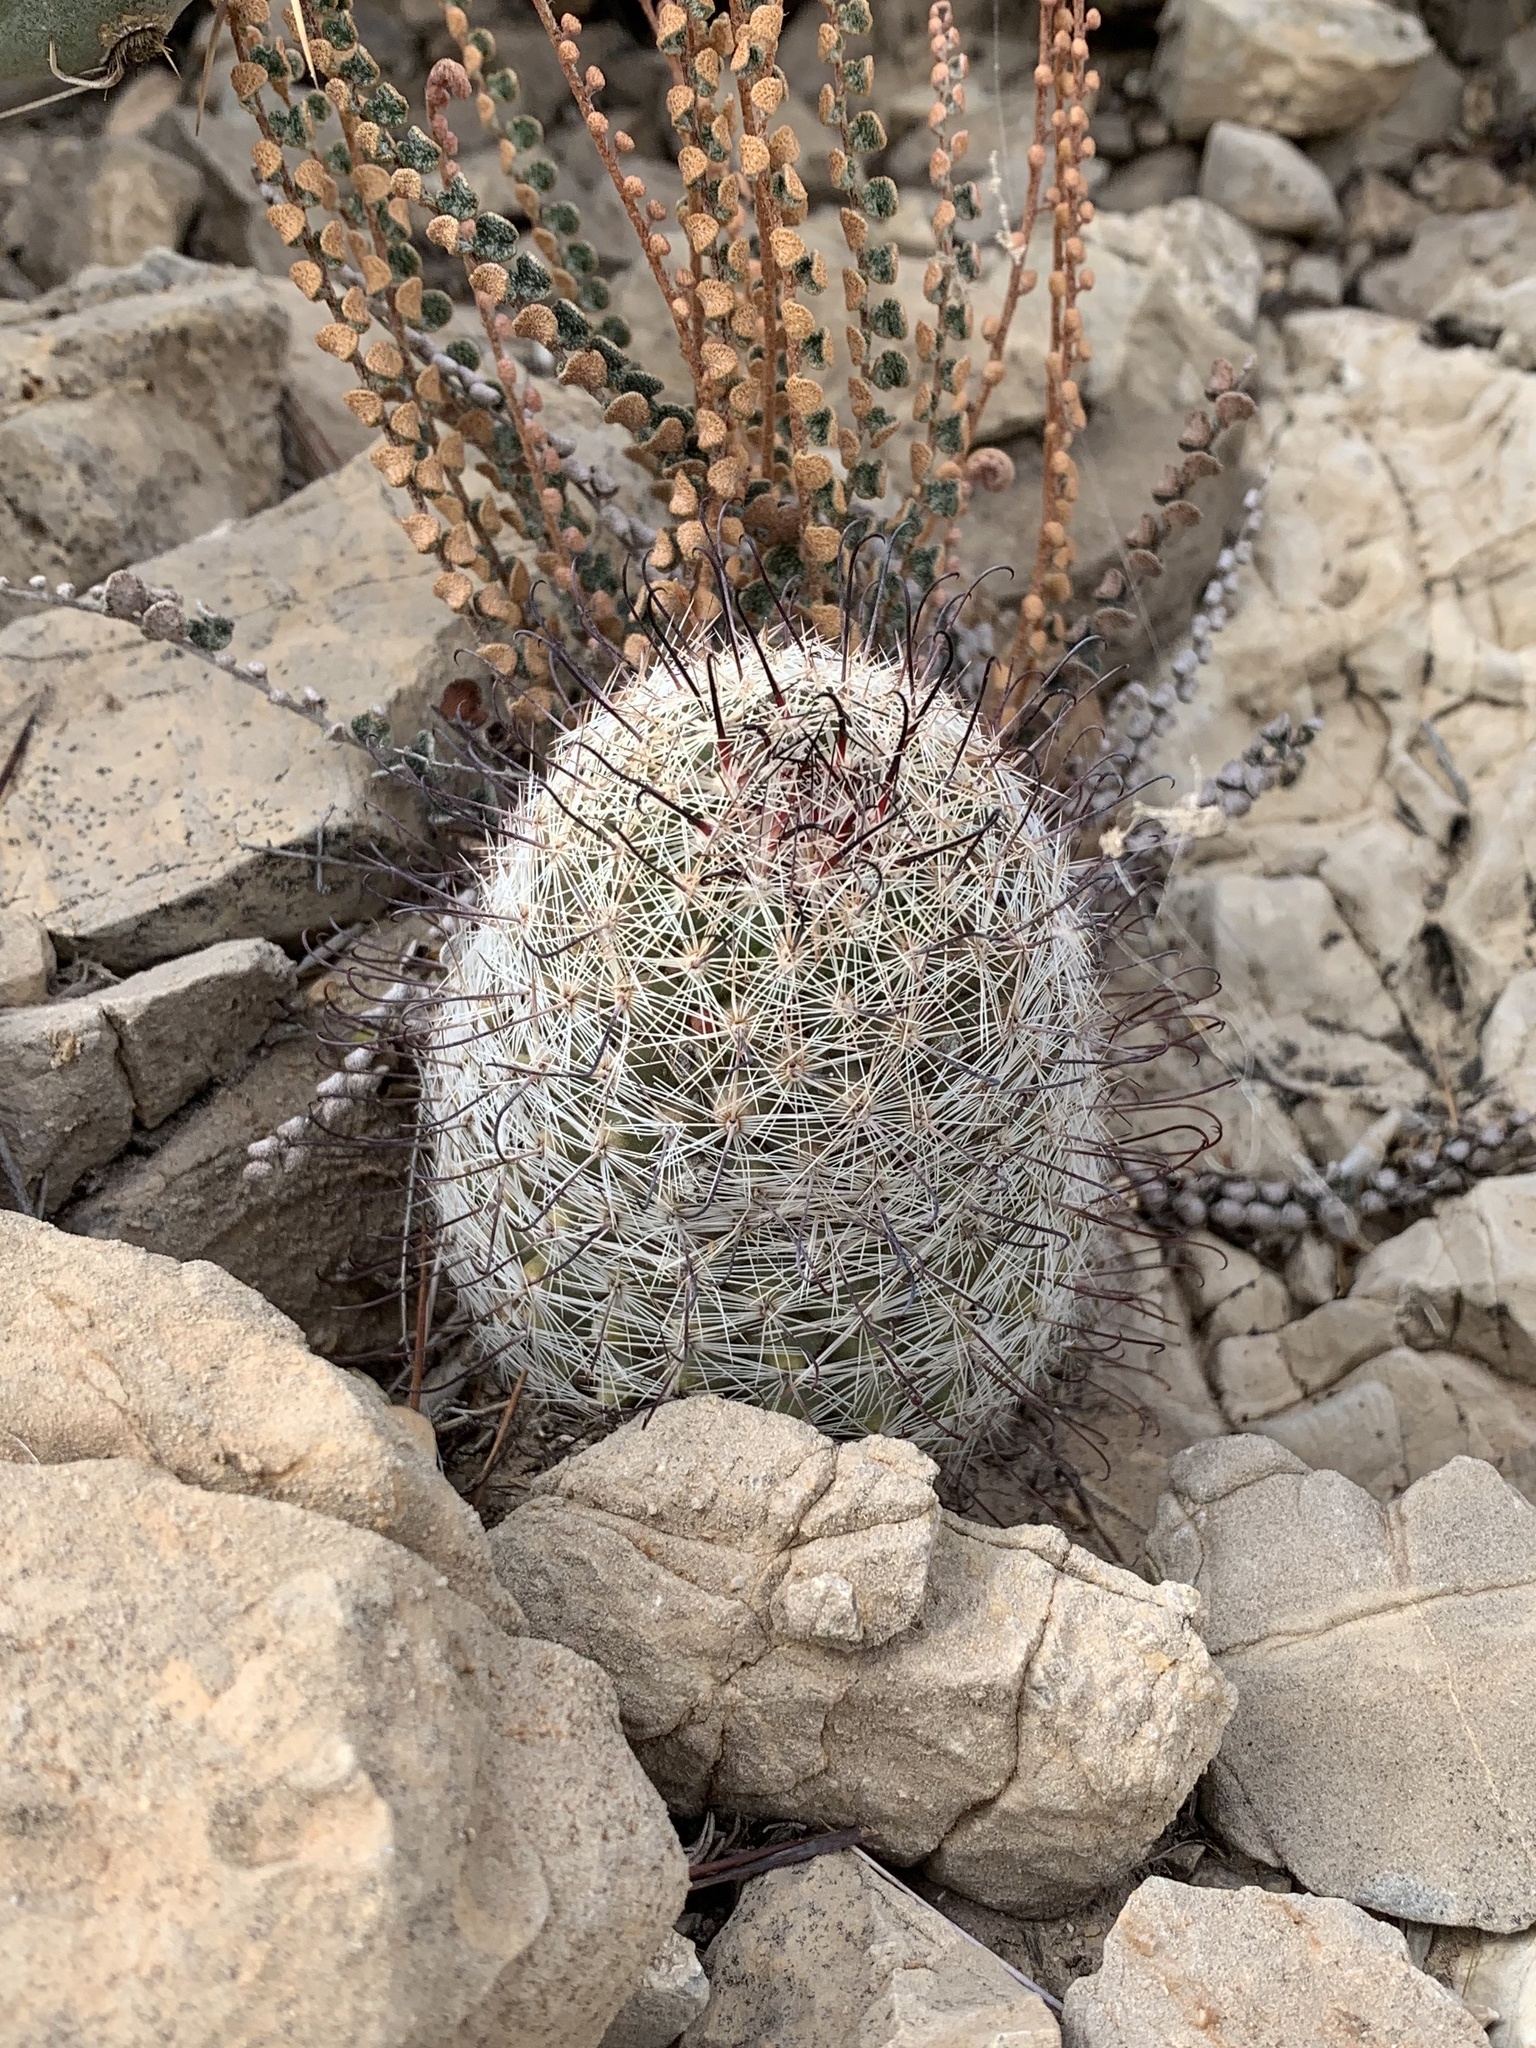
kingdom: Plantae
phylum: Tracheophyta
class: Magnoliopsida
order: Caryophyllales
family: Cactaceae
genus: Cochemiea
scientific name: Cochemiea grahamii
